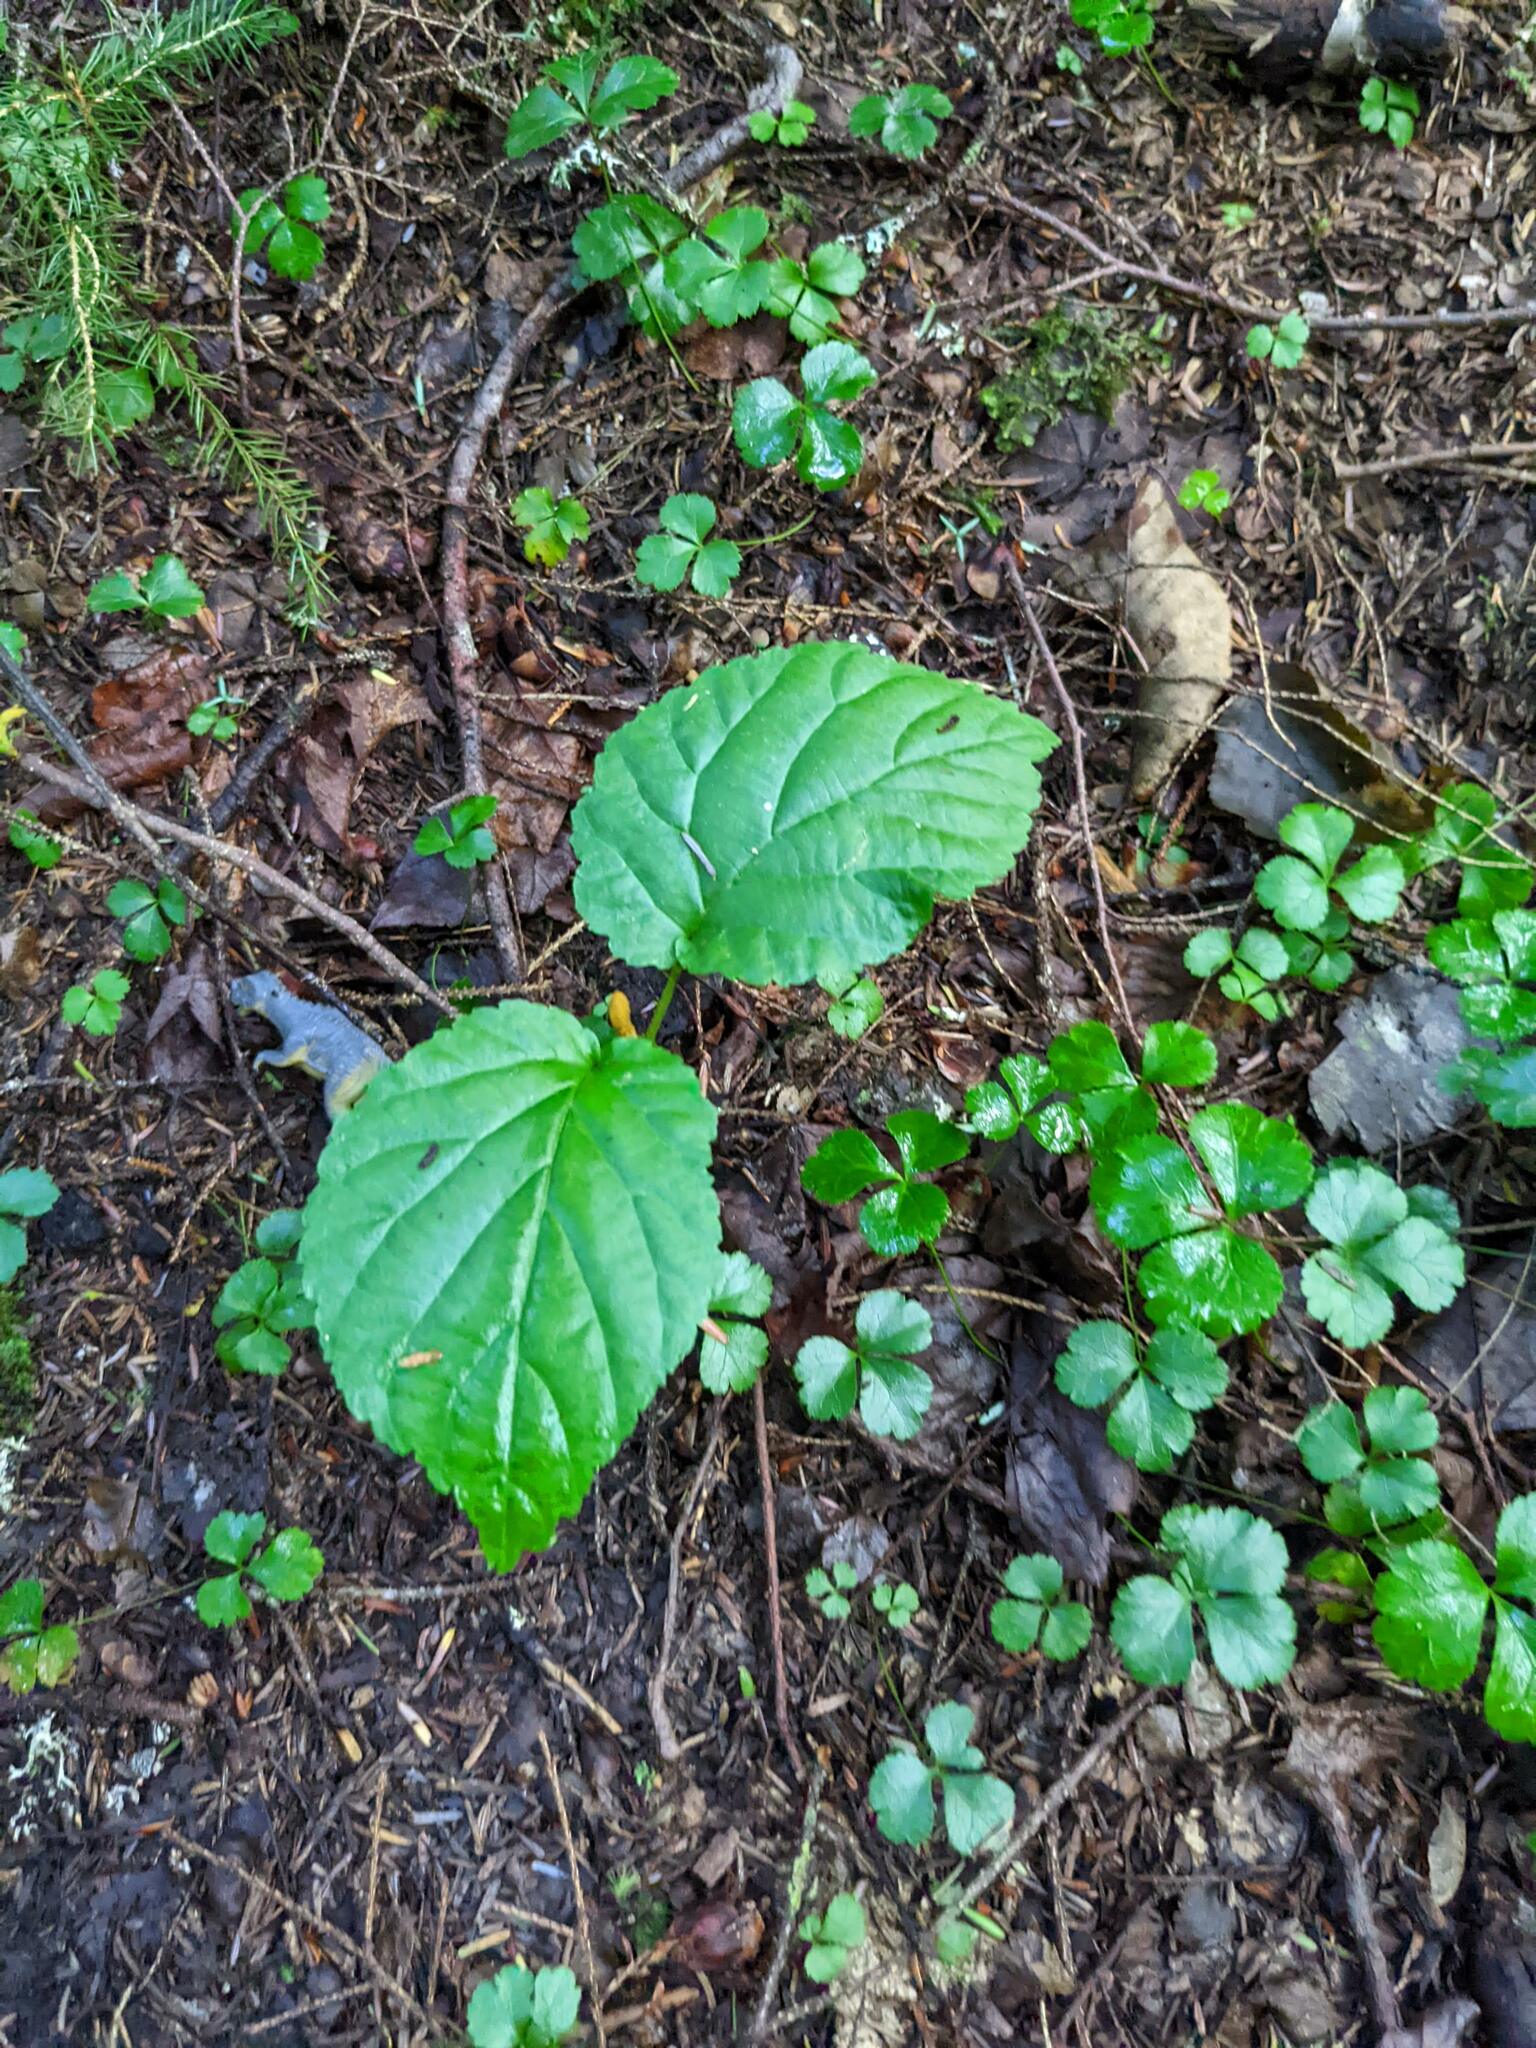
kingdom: Plantae
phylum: Tracheophyta
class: Magnoliopsida
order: Dipsacales
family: Viburnaceae
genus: Viburnum
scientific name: Viburnum lantanoides
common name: Hobblebush
